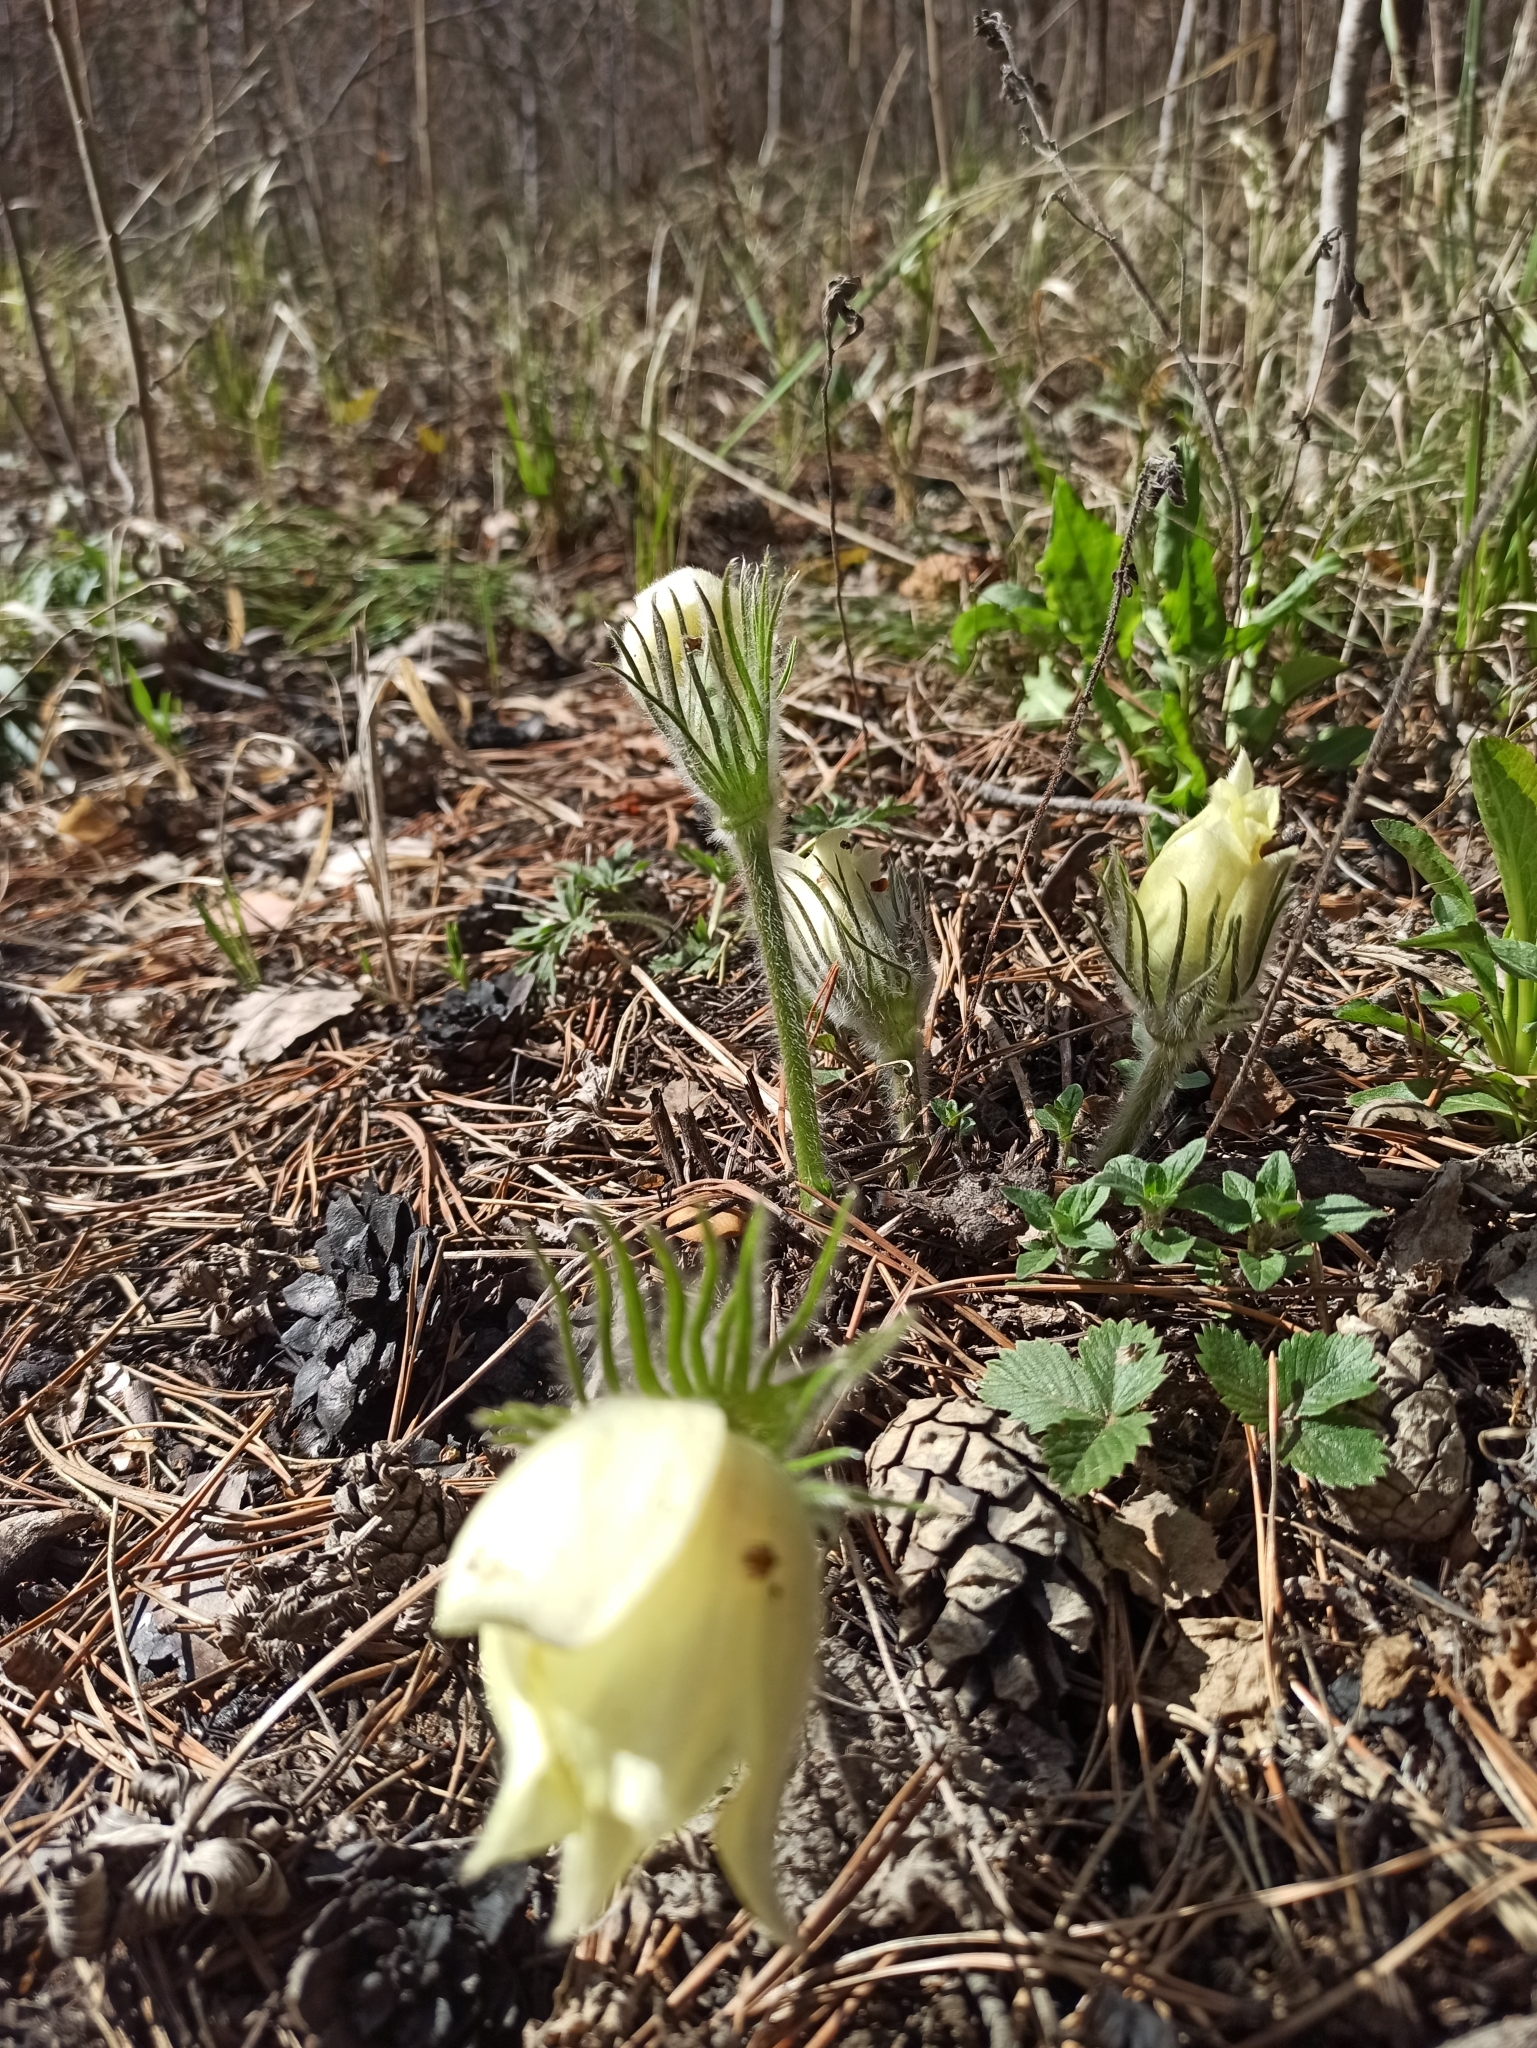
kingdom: Plantae
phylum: Tracheophyta
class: Magnoliopsida
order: Ranunculales
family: Ranunculaceae
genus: Pulsatilla
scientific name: Pulsatilla patens
